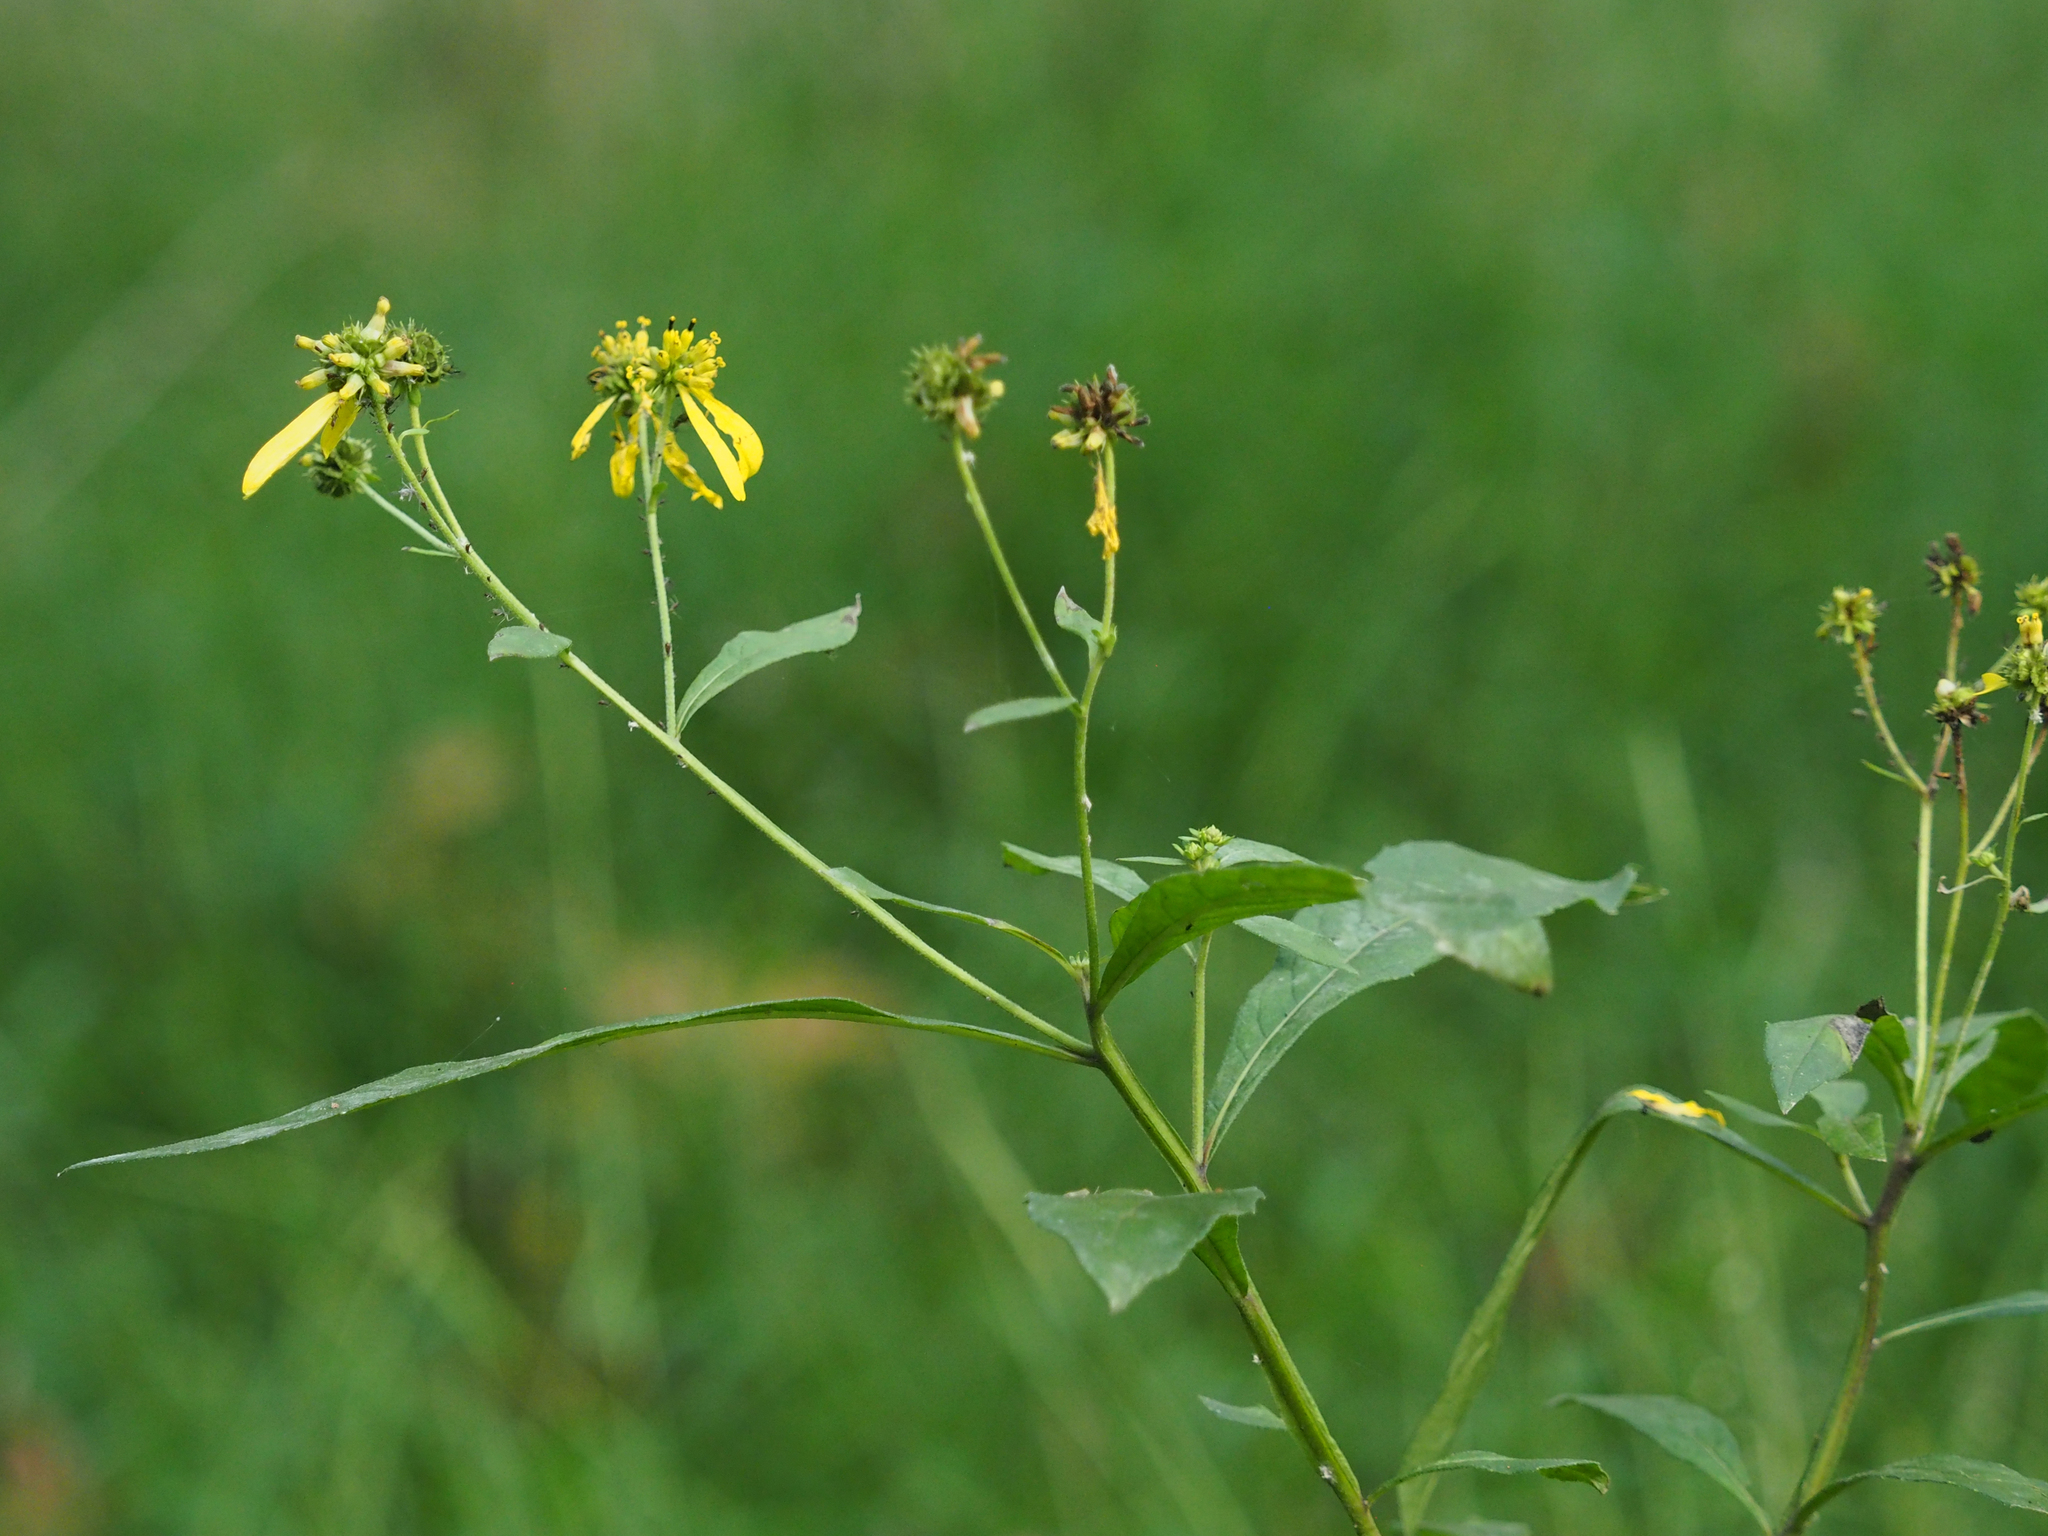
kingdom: Plantae
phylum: Tracheophyta
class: Magnoliopsida
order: Asterales
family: Asteraceae
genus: Verbesina
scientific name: Verbesina alternifolia
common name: Wingstem
